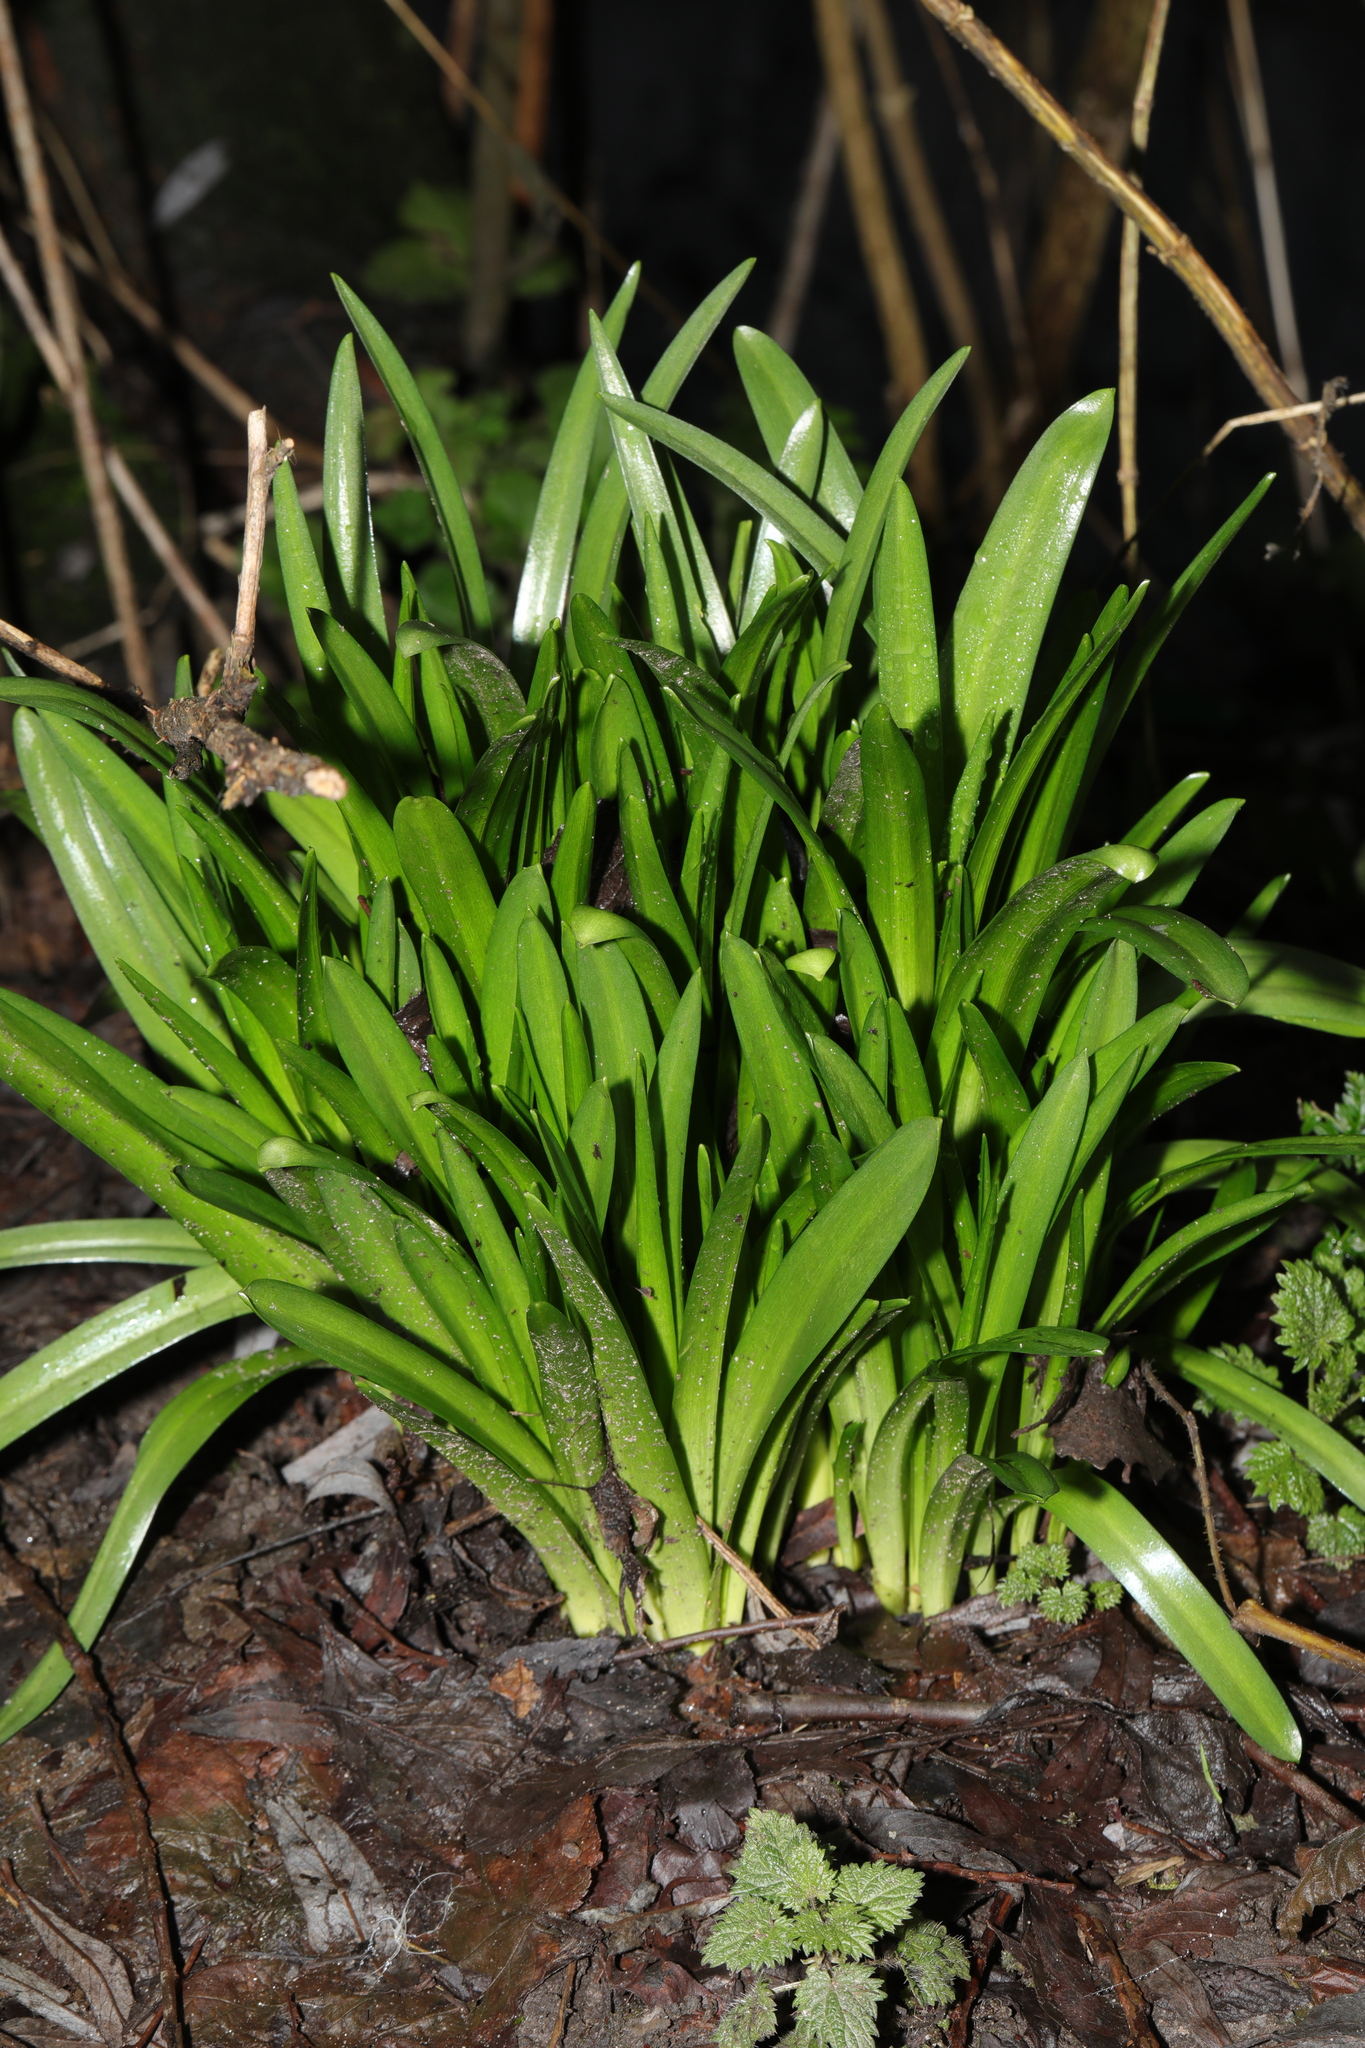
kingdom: Plantae
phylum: Tracheophyta
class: Liliopsida
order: Asparagales
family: Asparagaceae
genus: Hyacinthoides
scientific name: Hyacinthoides massartiana
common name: Hyacinthoides
